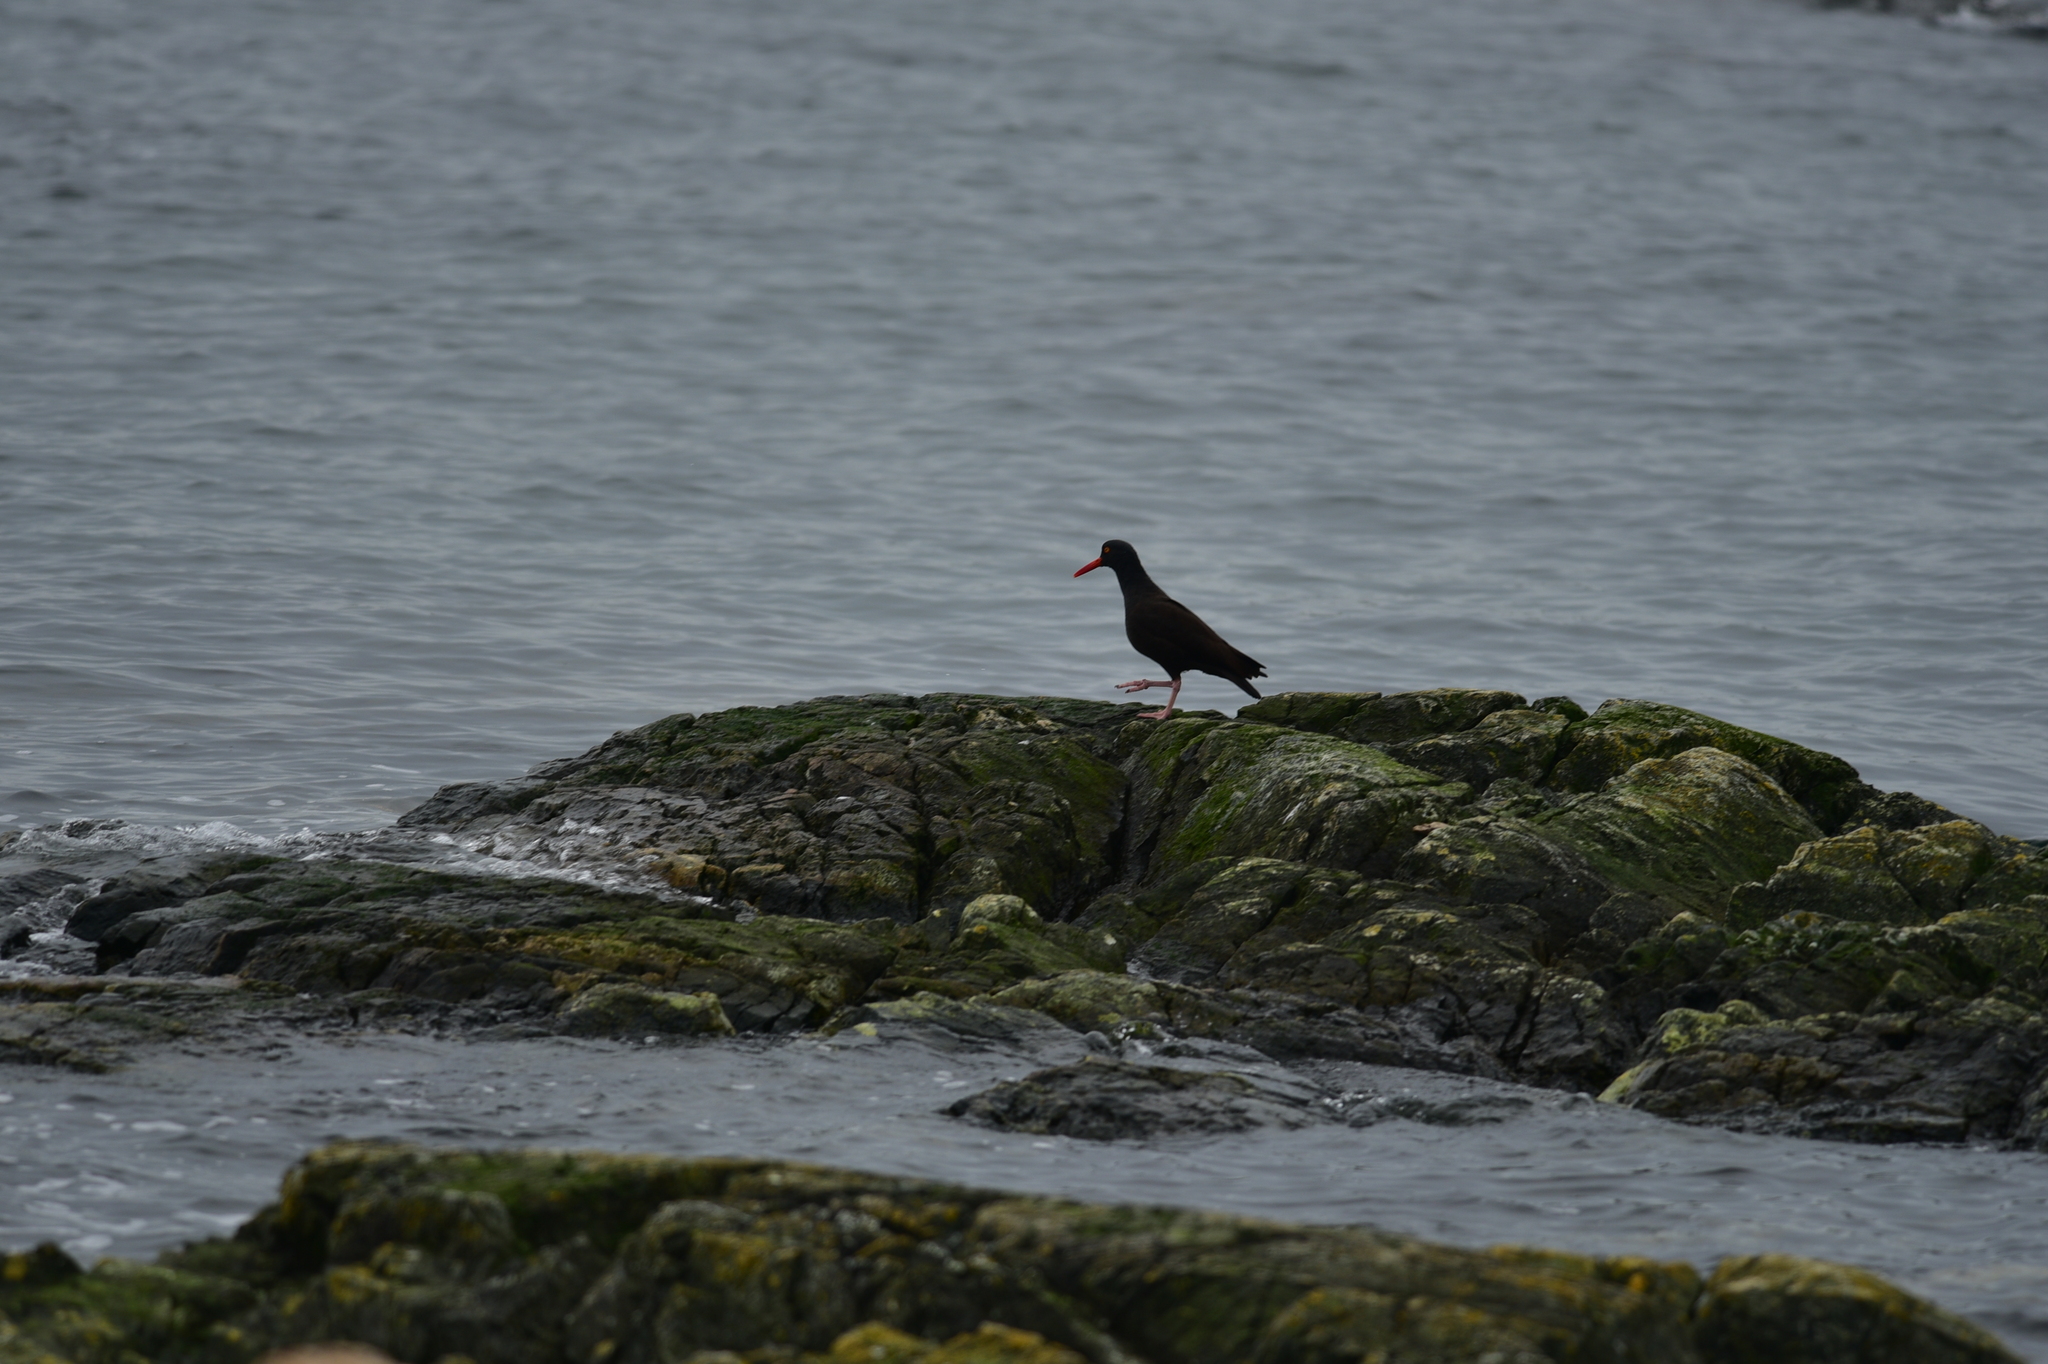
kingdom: Animalia
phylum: Chordata
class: Aves
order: Charadriiformes
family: Haematopodidae
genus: Haematopus
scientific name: Haematopus bachmani
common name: Black oystercatcher
